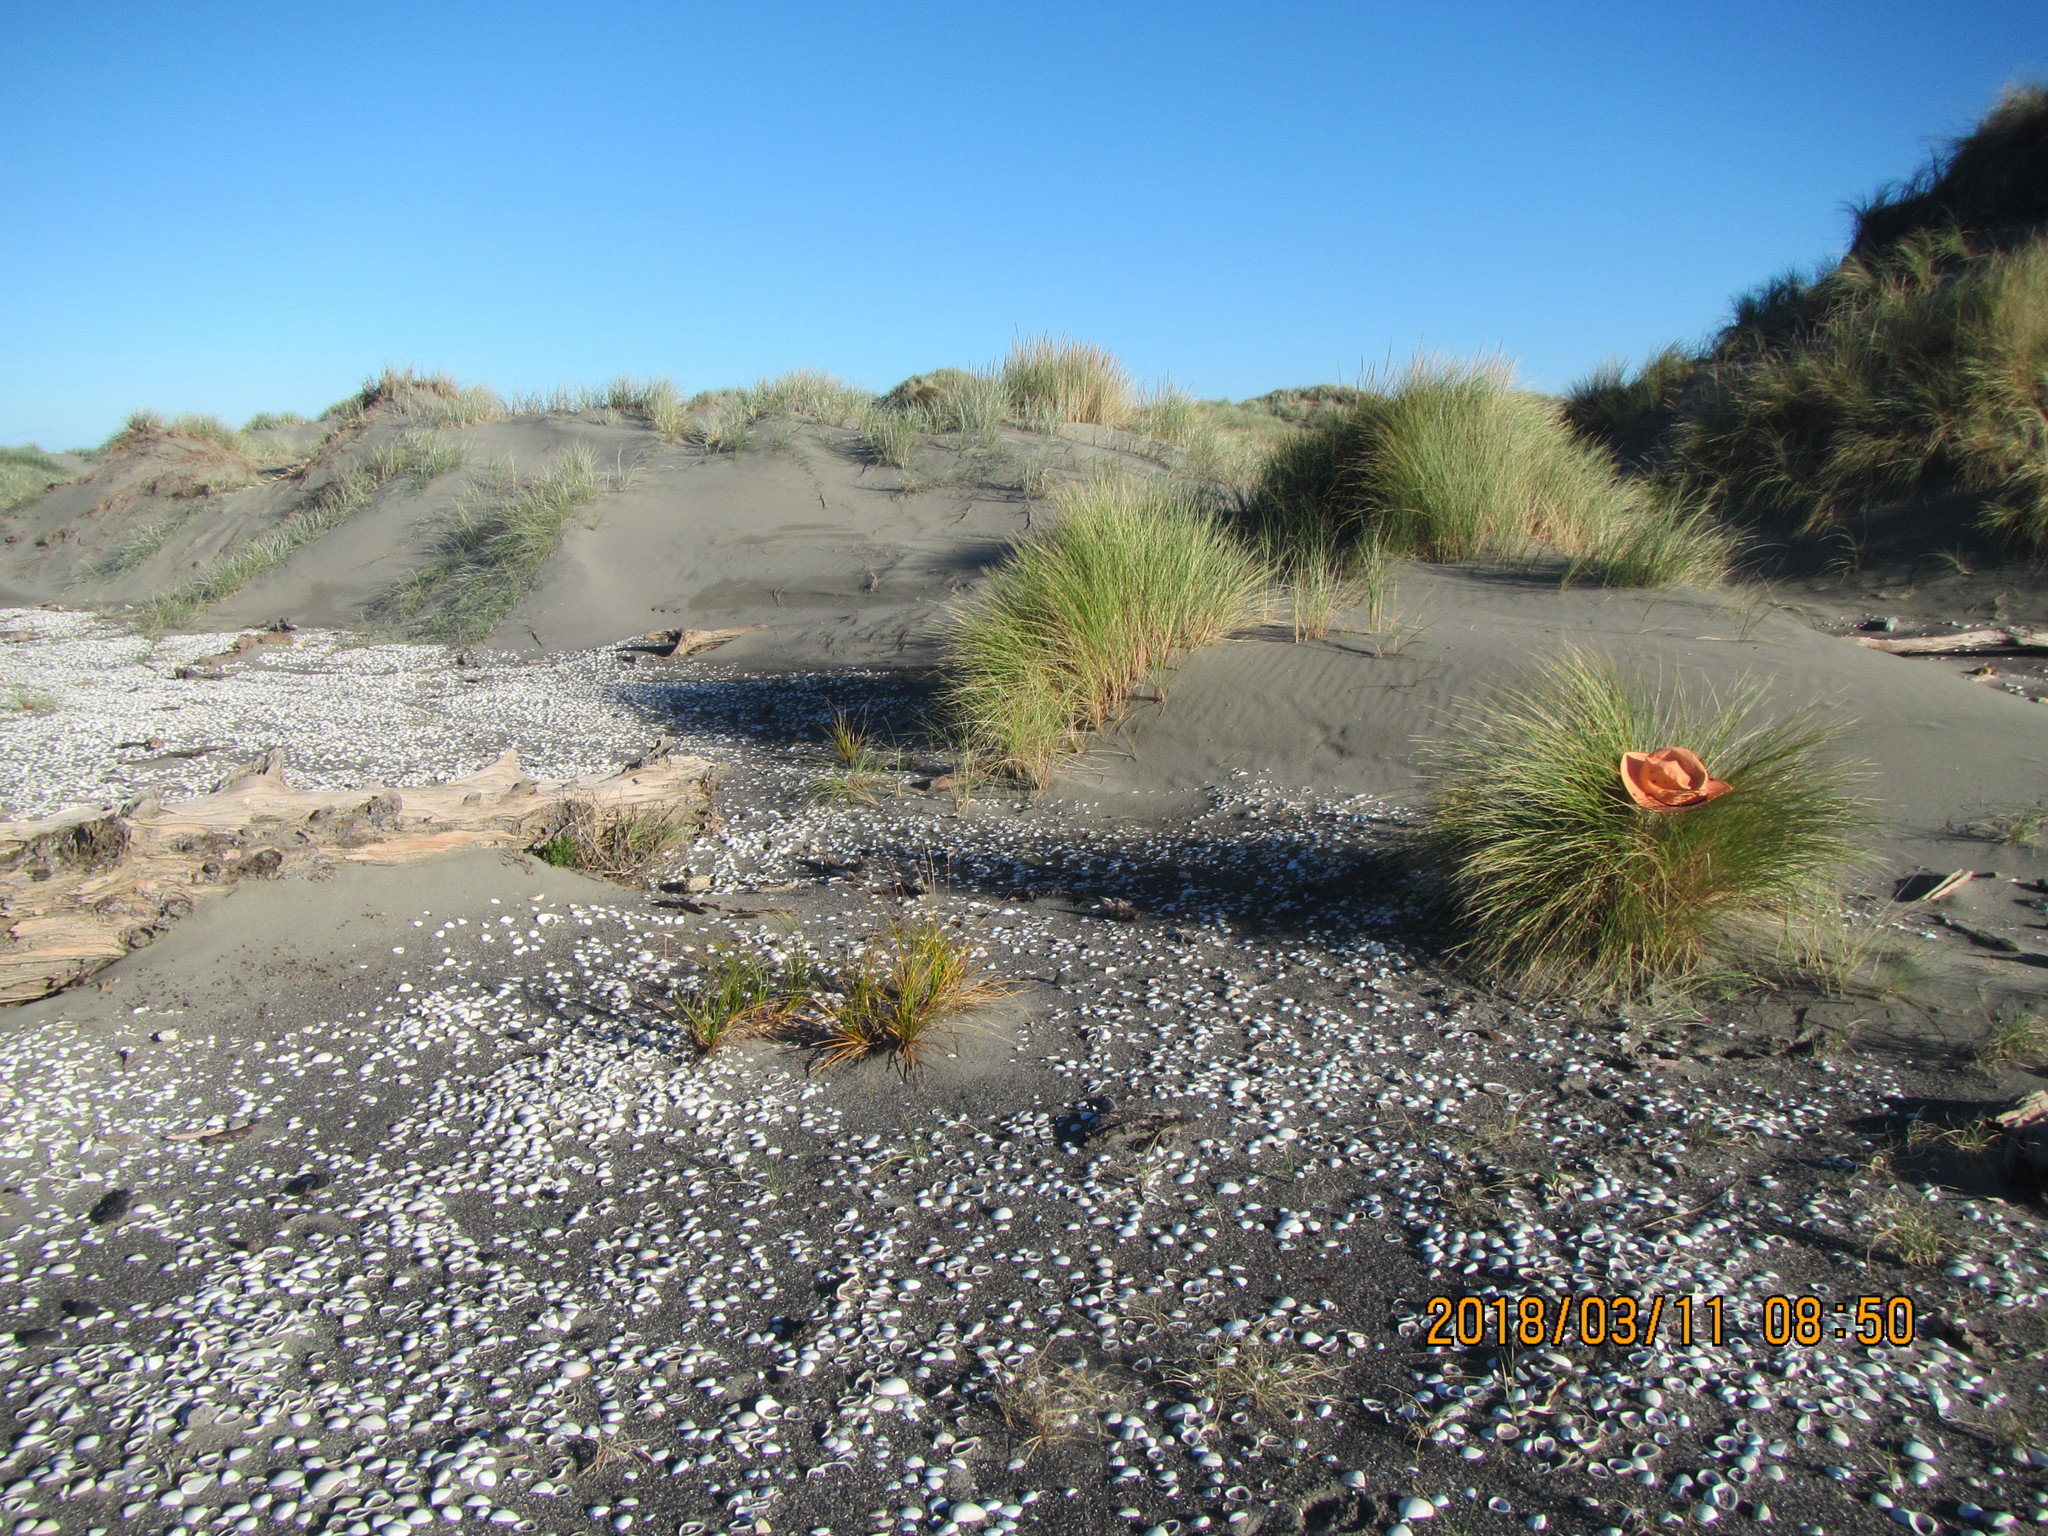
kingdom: Animalia
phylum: Arthropoda
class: Arachnida
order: Opiliones
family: Phalangiidae
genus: Phalangium
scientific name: Phalangium opilio
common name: Daddy longleg
